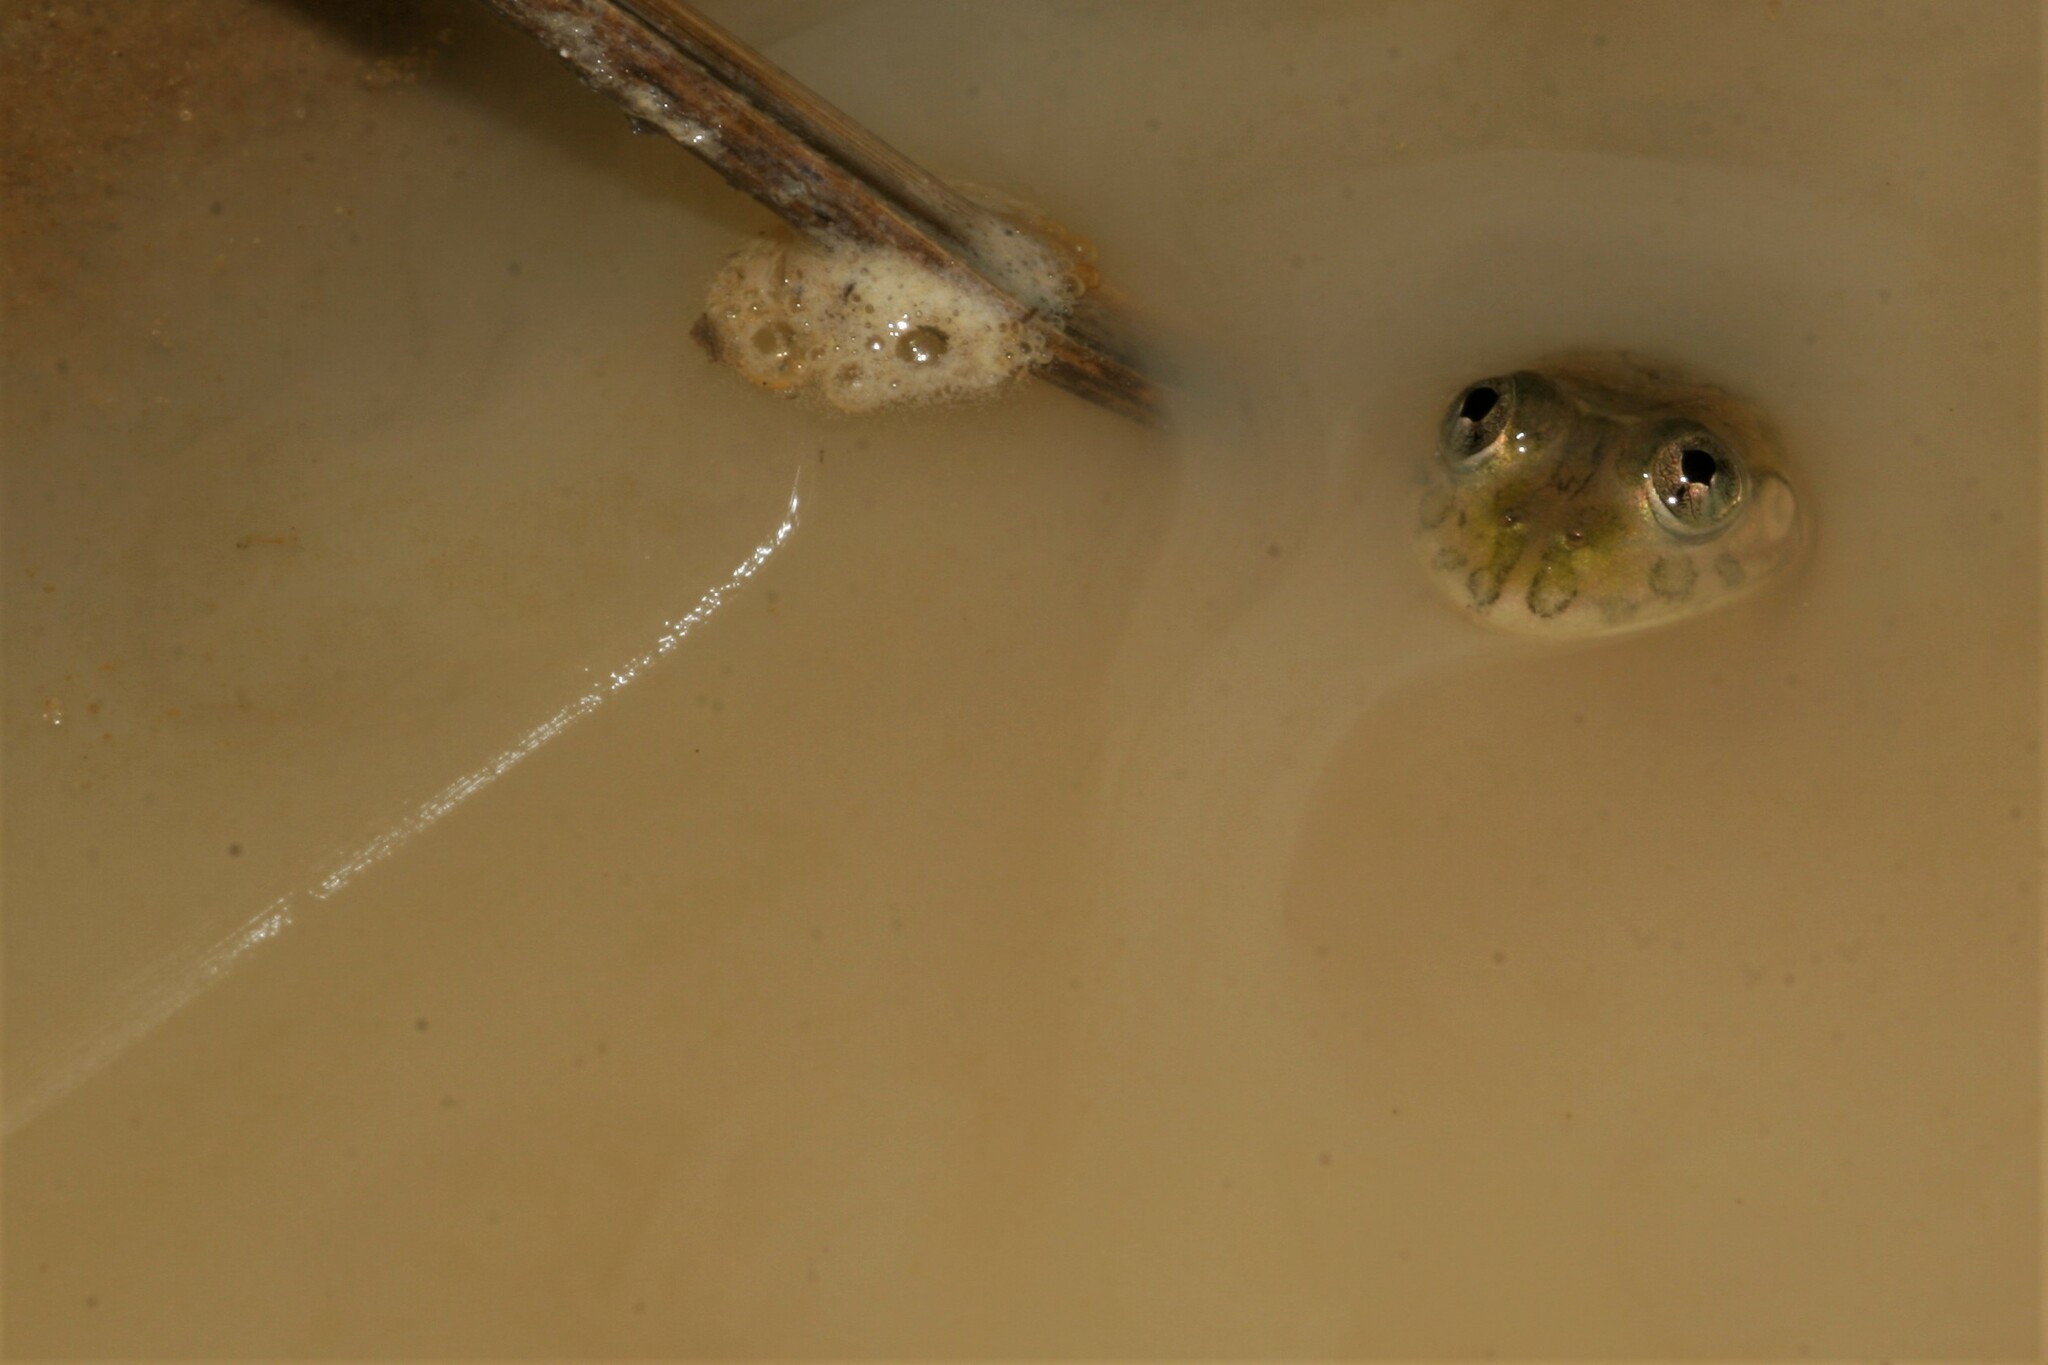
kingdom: Animalia
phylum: Chordata
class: Amphibia
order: Anura
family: Dicroglossidae
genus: Hoplobatrachus
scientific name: Hoplobatrachus occipitalis
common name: Eastern groove-crowned bullfrog
